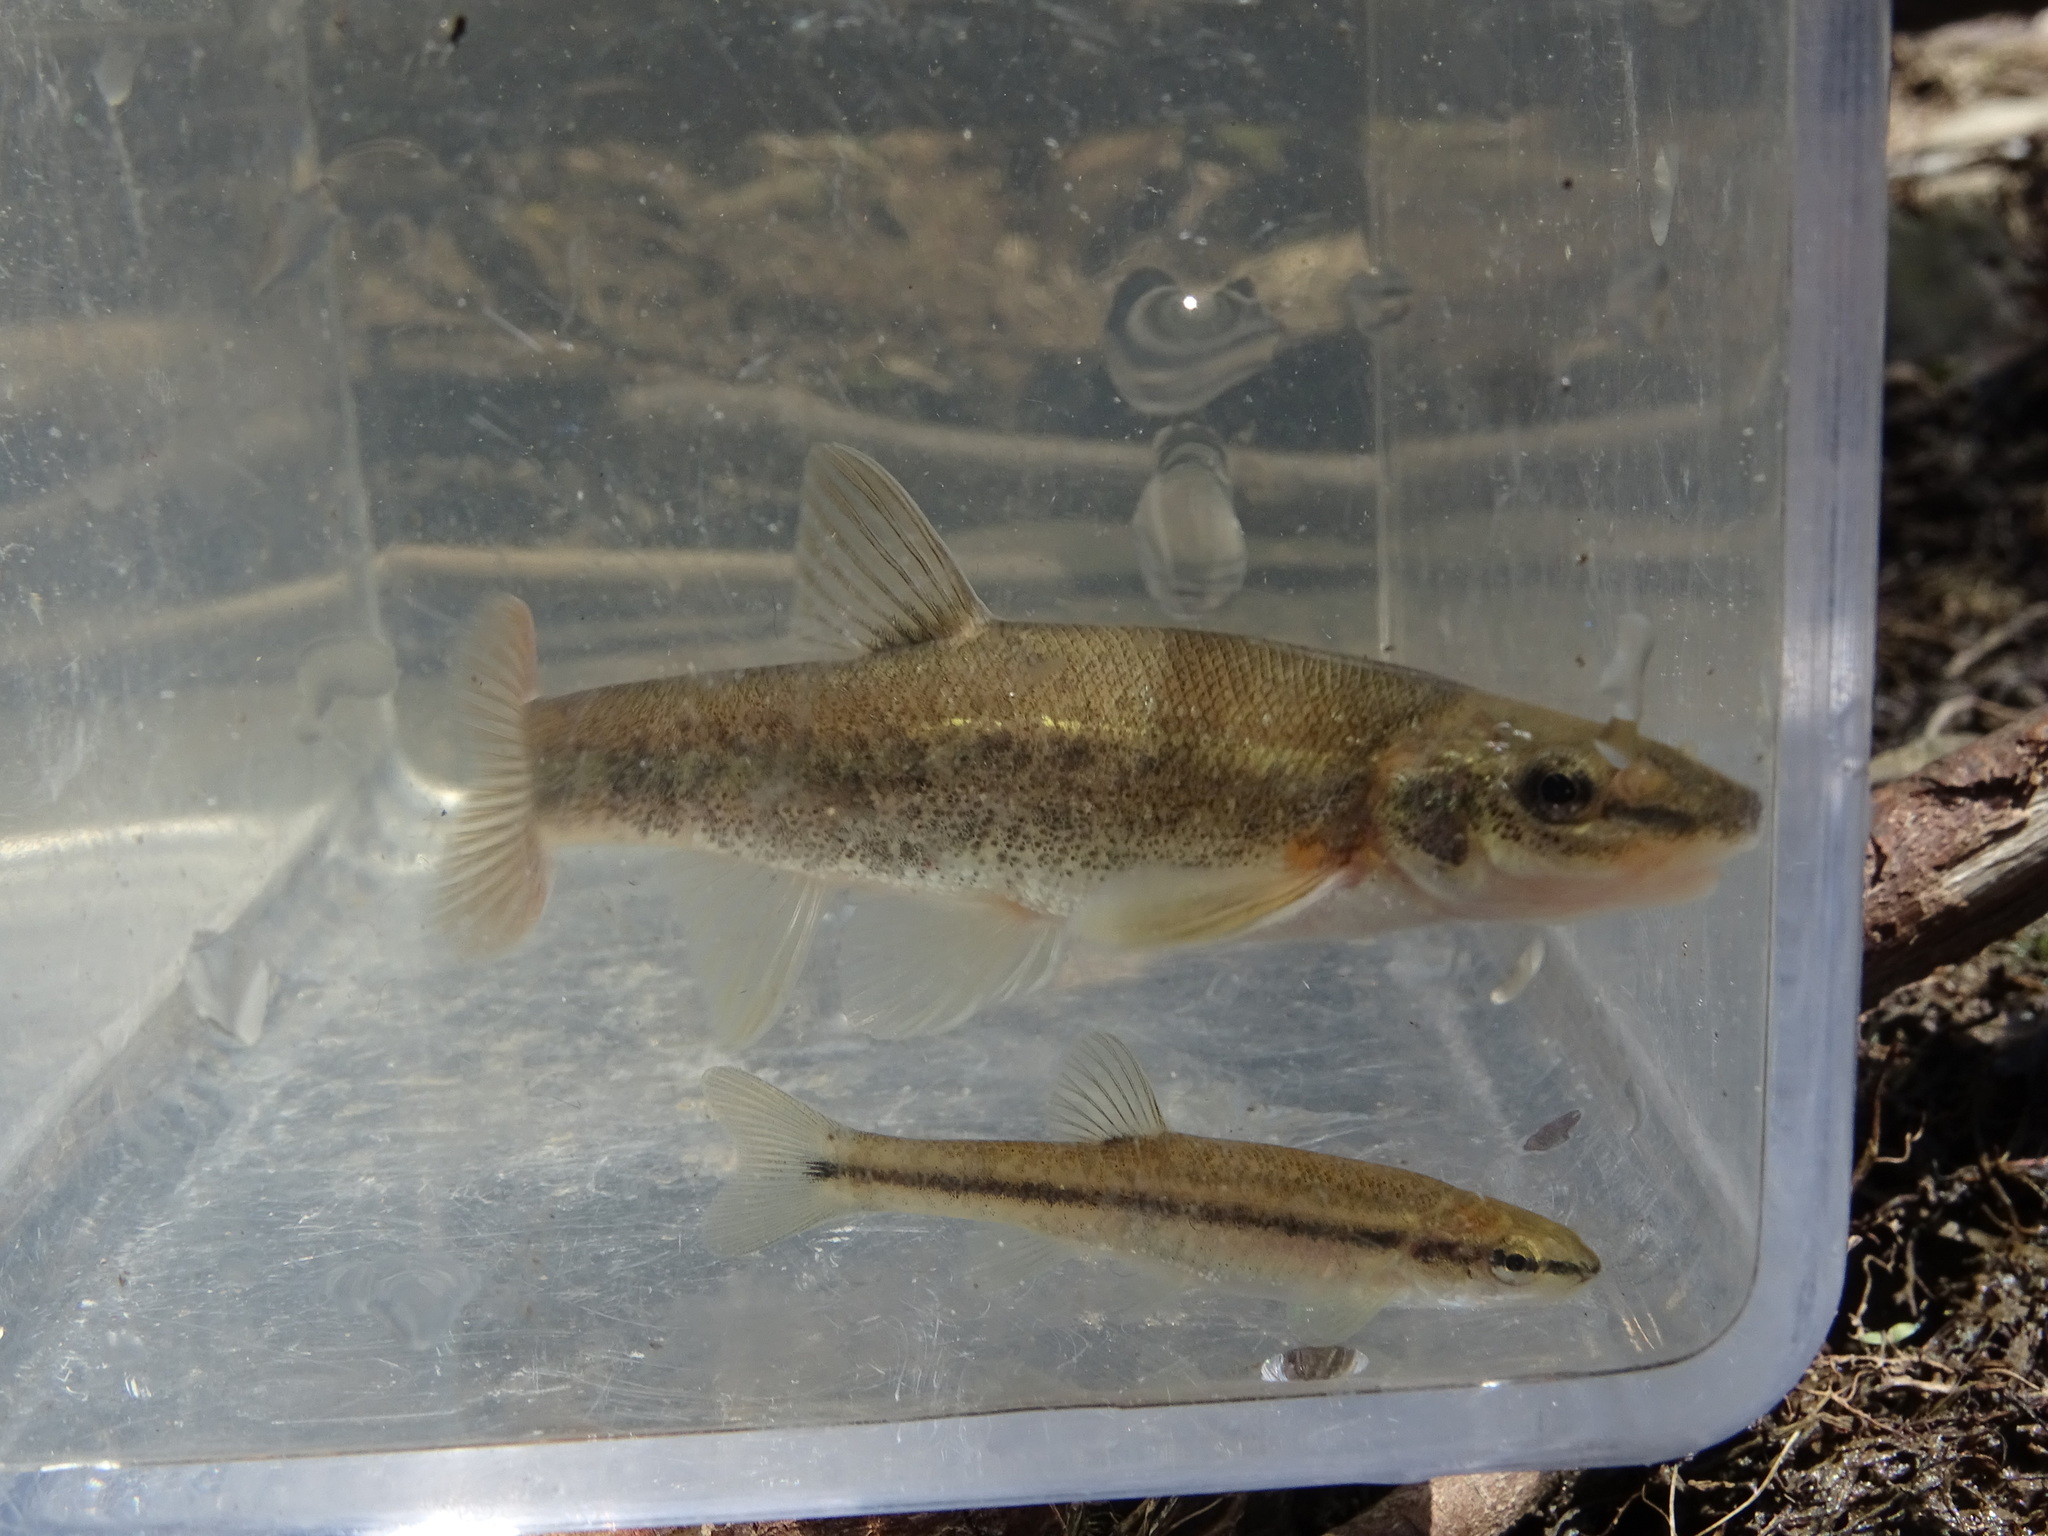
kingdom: Animalia
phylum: Chordata
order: Cypriniformes
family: Cyprinidae
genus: Rhinichthys
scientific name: Rhinichthys cataractae
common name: Longnose dace
